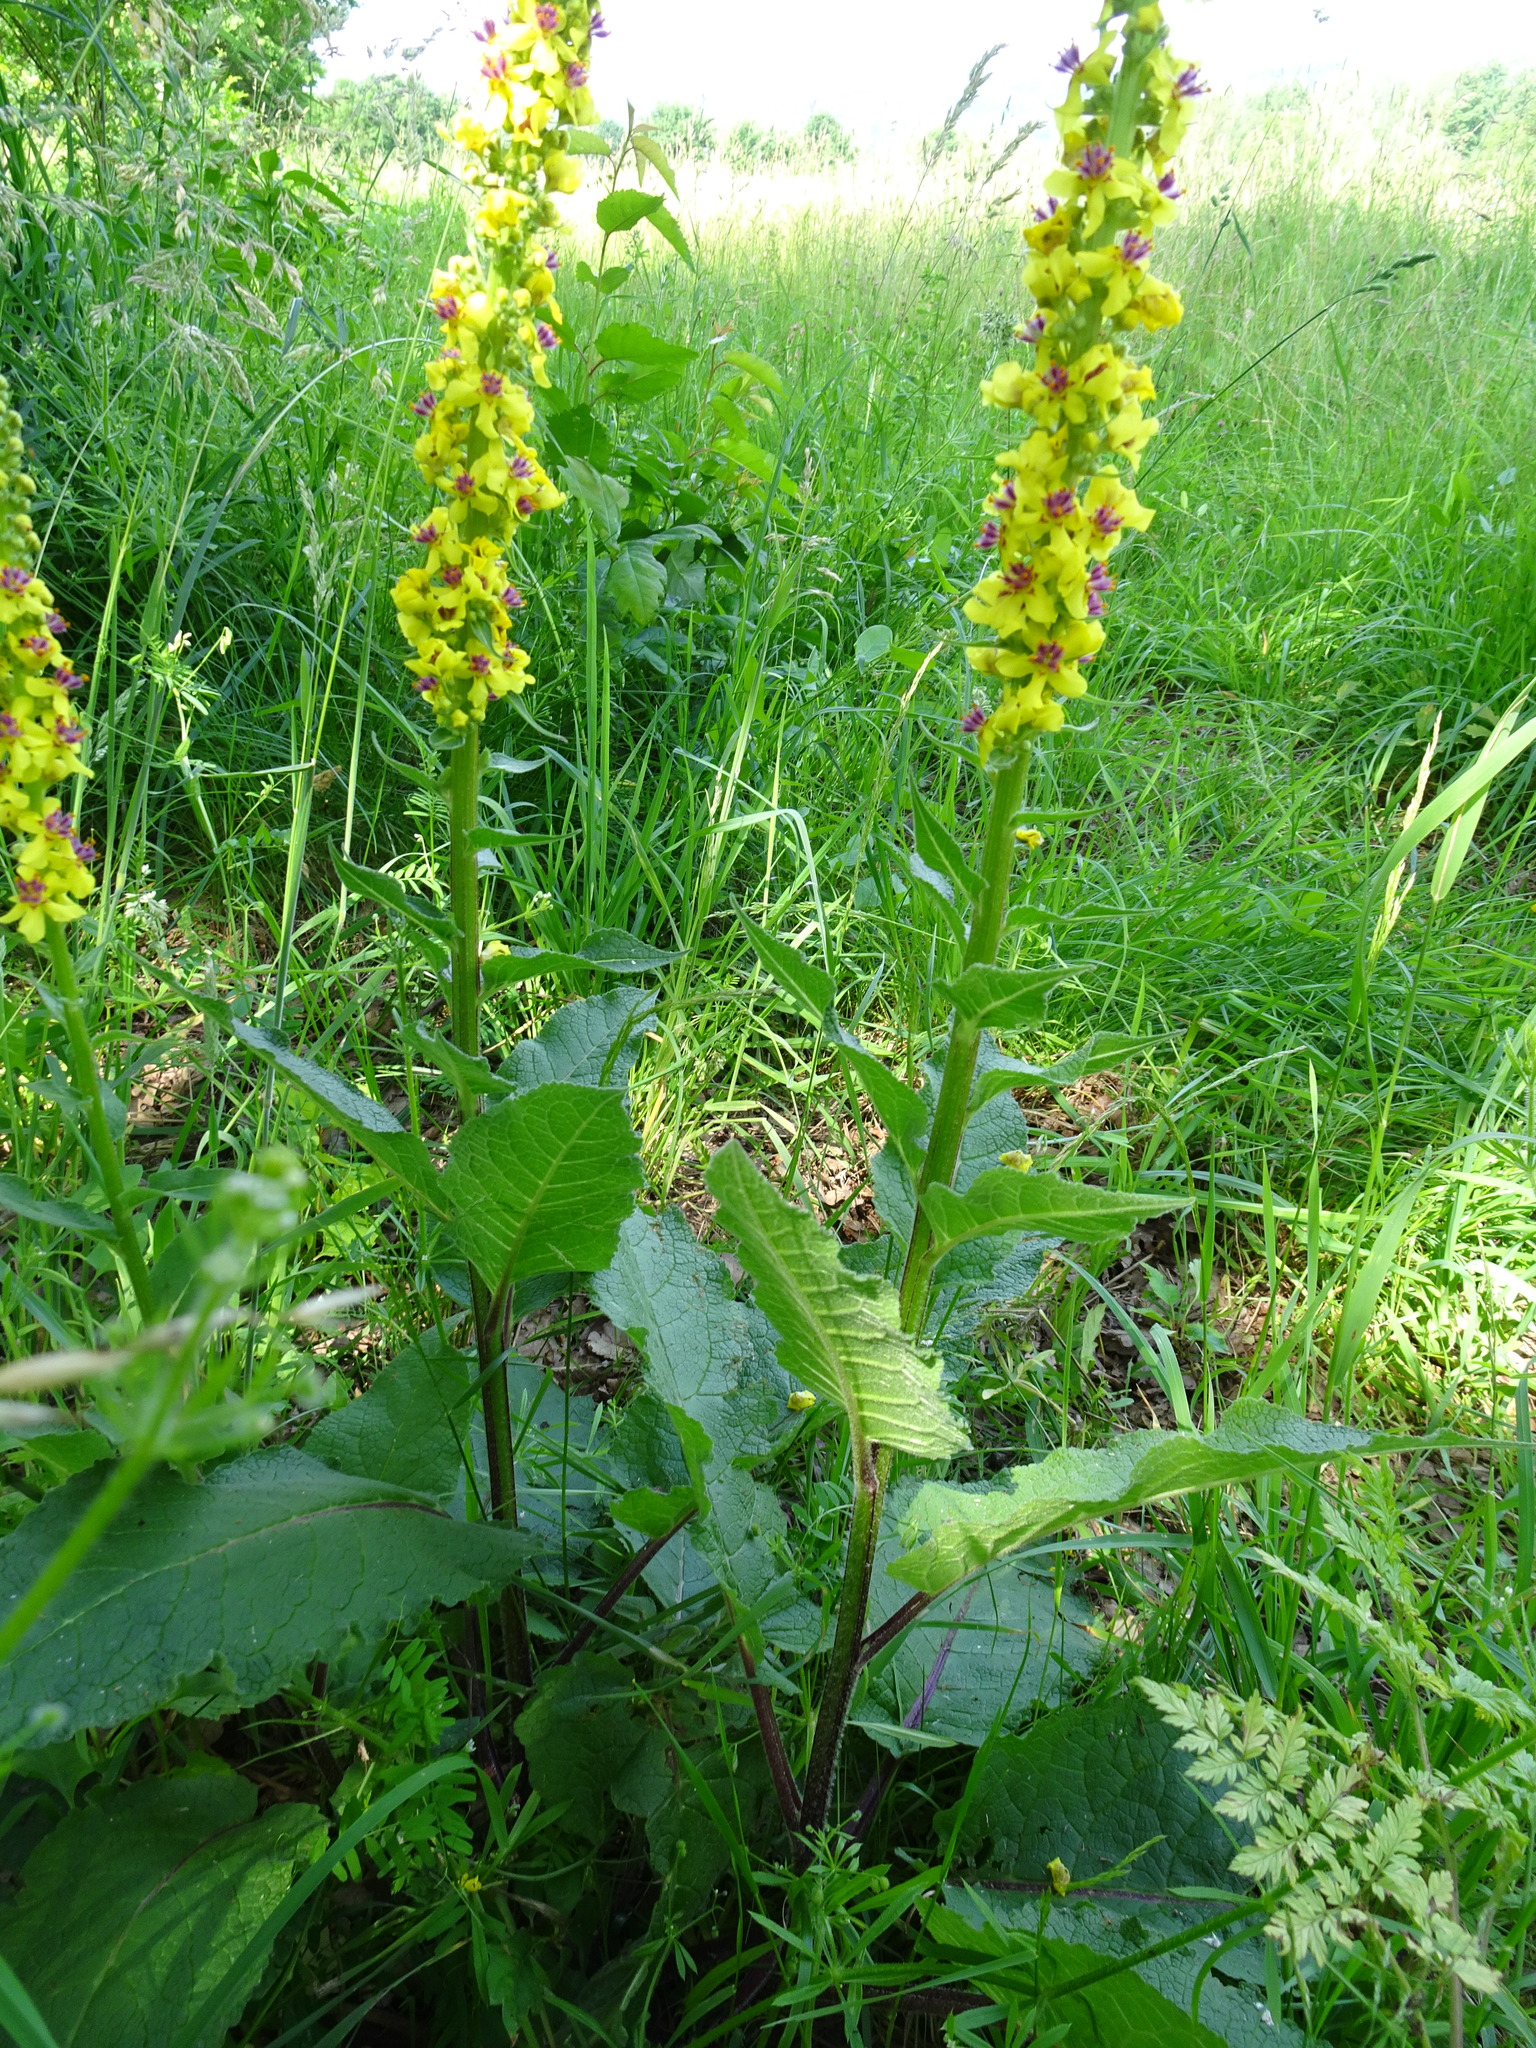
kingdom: Plantae
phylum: Tracheophyta
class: Magnoliopsida
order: Lamiales
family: Scrophulariaceae
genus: Verbascum
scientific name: Verbascum nigrum
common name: Dark mullein
